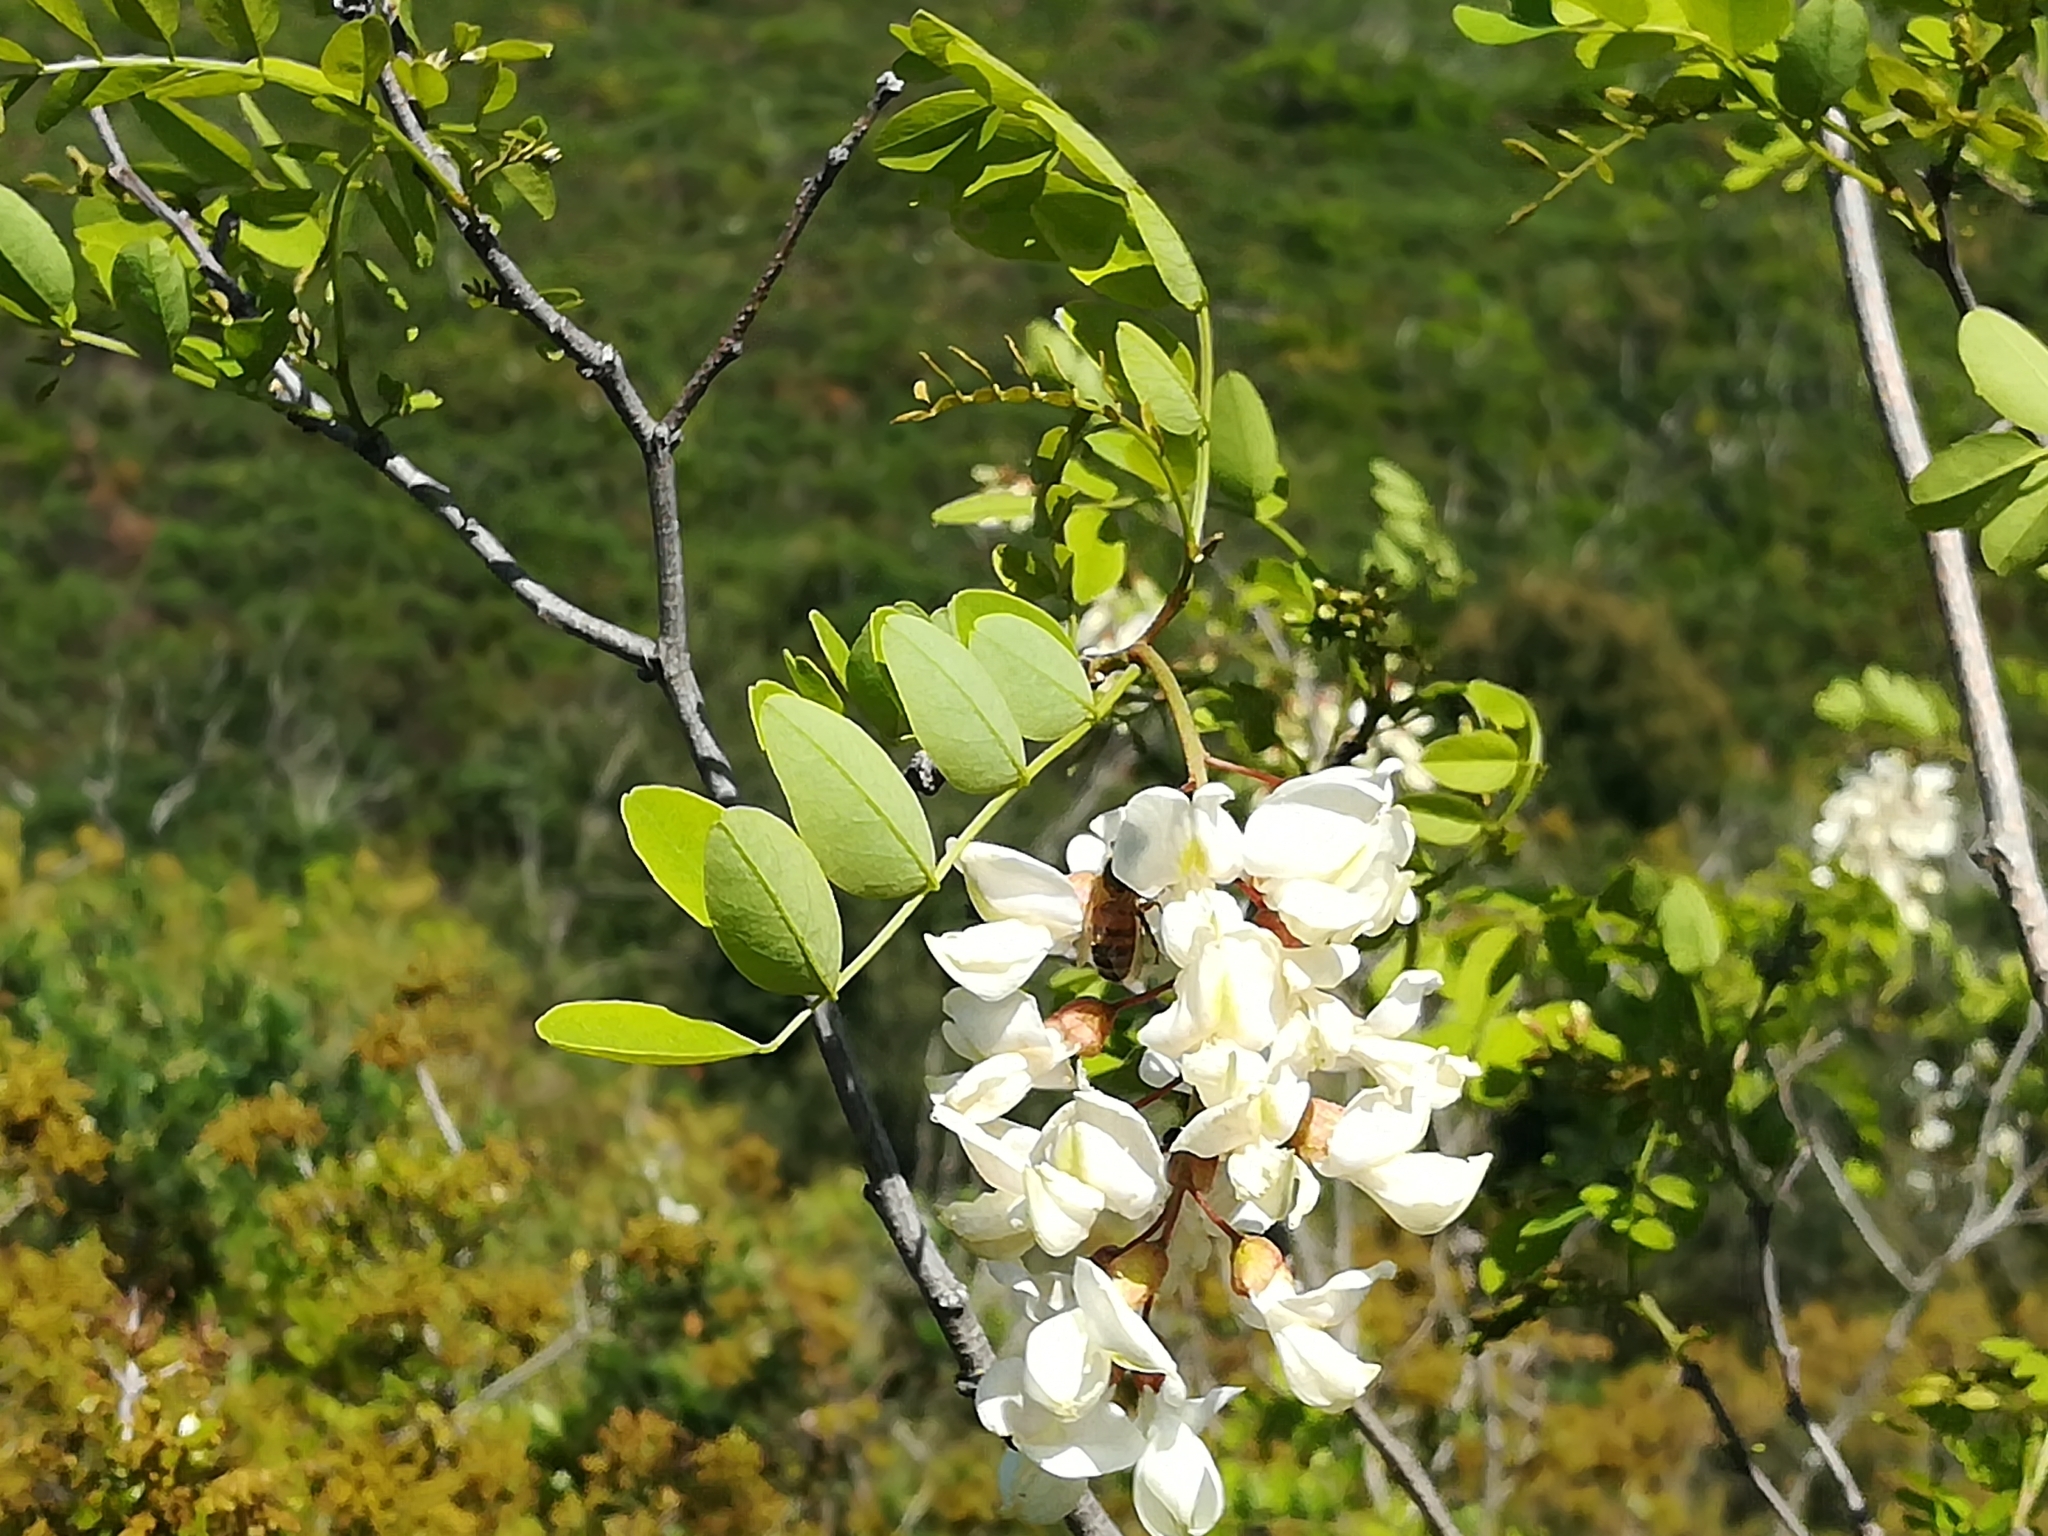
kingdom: Plantae
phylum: Tracheophyta
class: Magnoliopsida
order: Fabales
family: Fabaceae
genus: Robinia
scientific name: Robinia pseudoacacia
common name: Black locust
